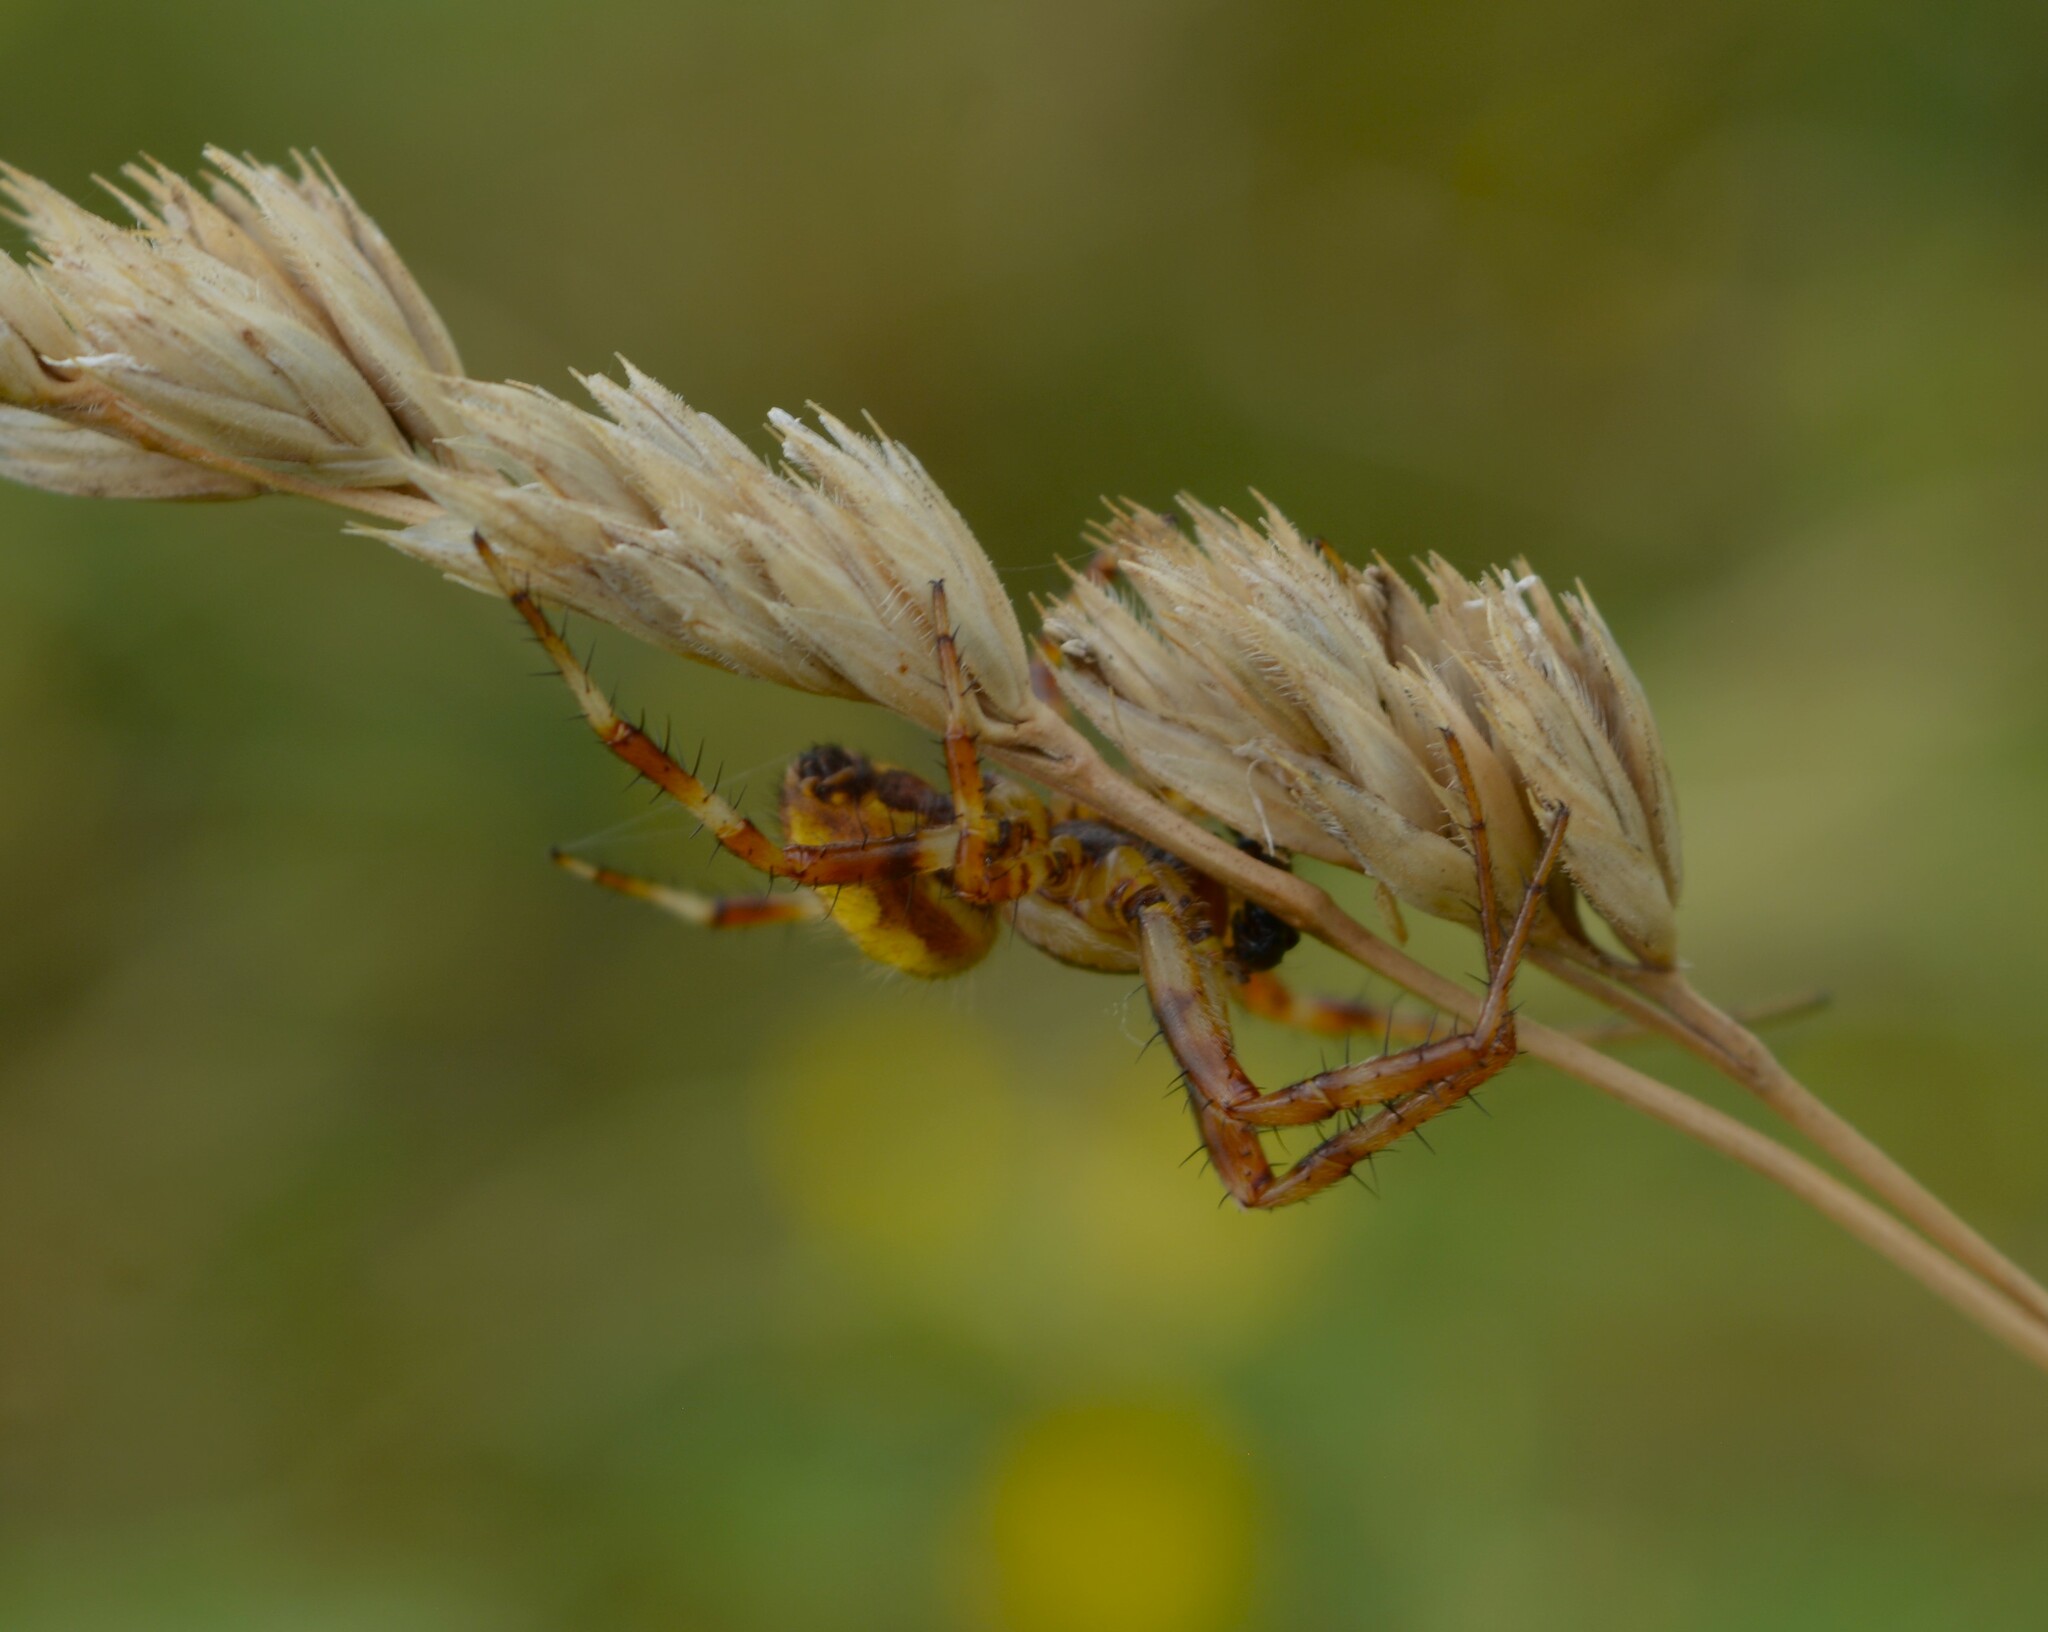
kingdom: Animalia
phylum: Arthropoda
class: Arachnida
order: Araneae
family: Araneidae
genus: Araneus
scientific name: Araneus quadratus
